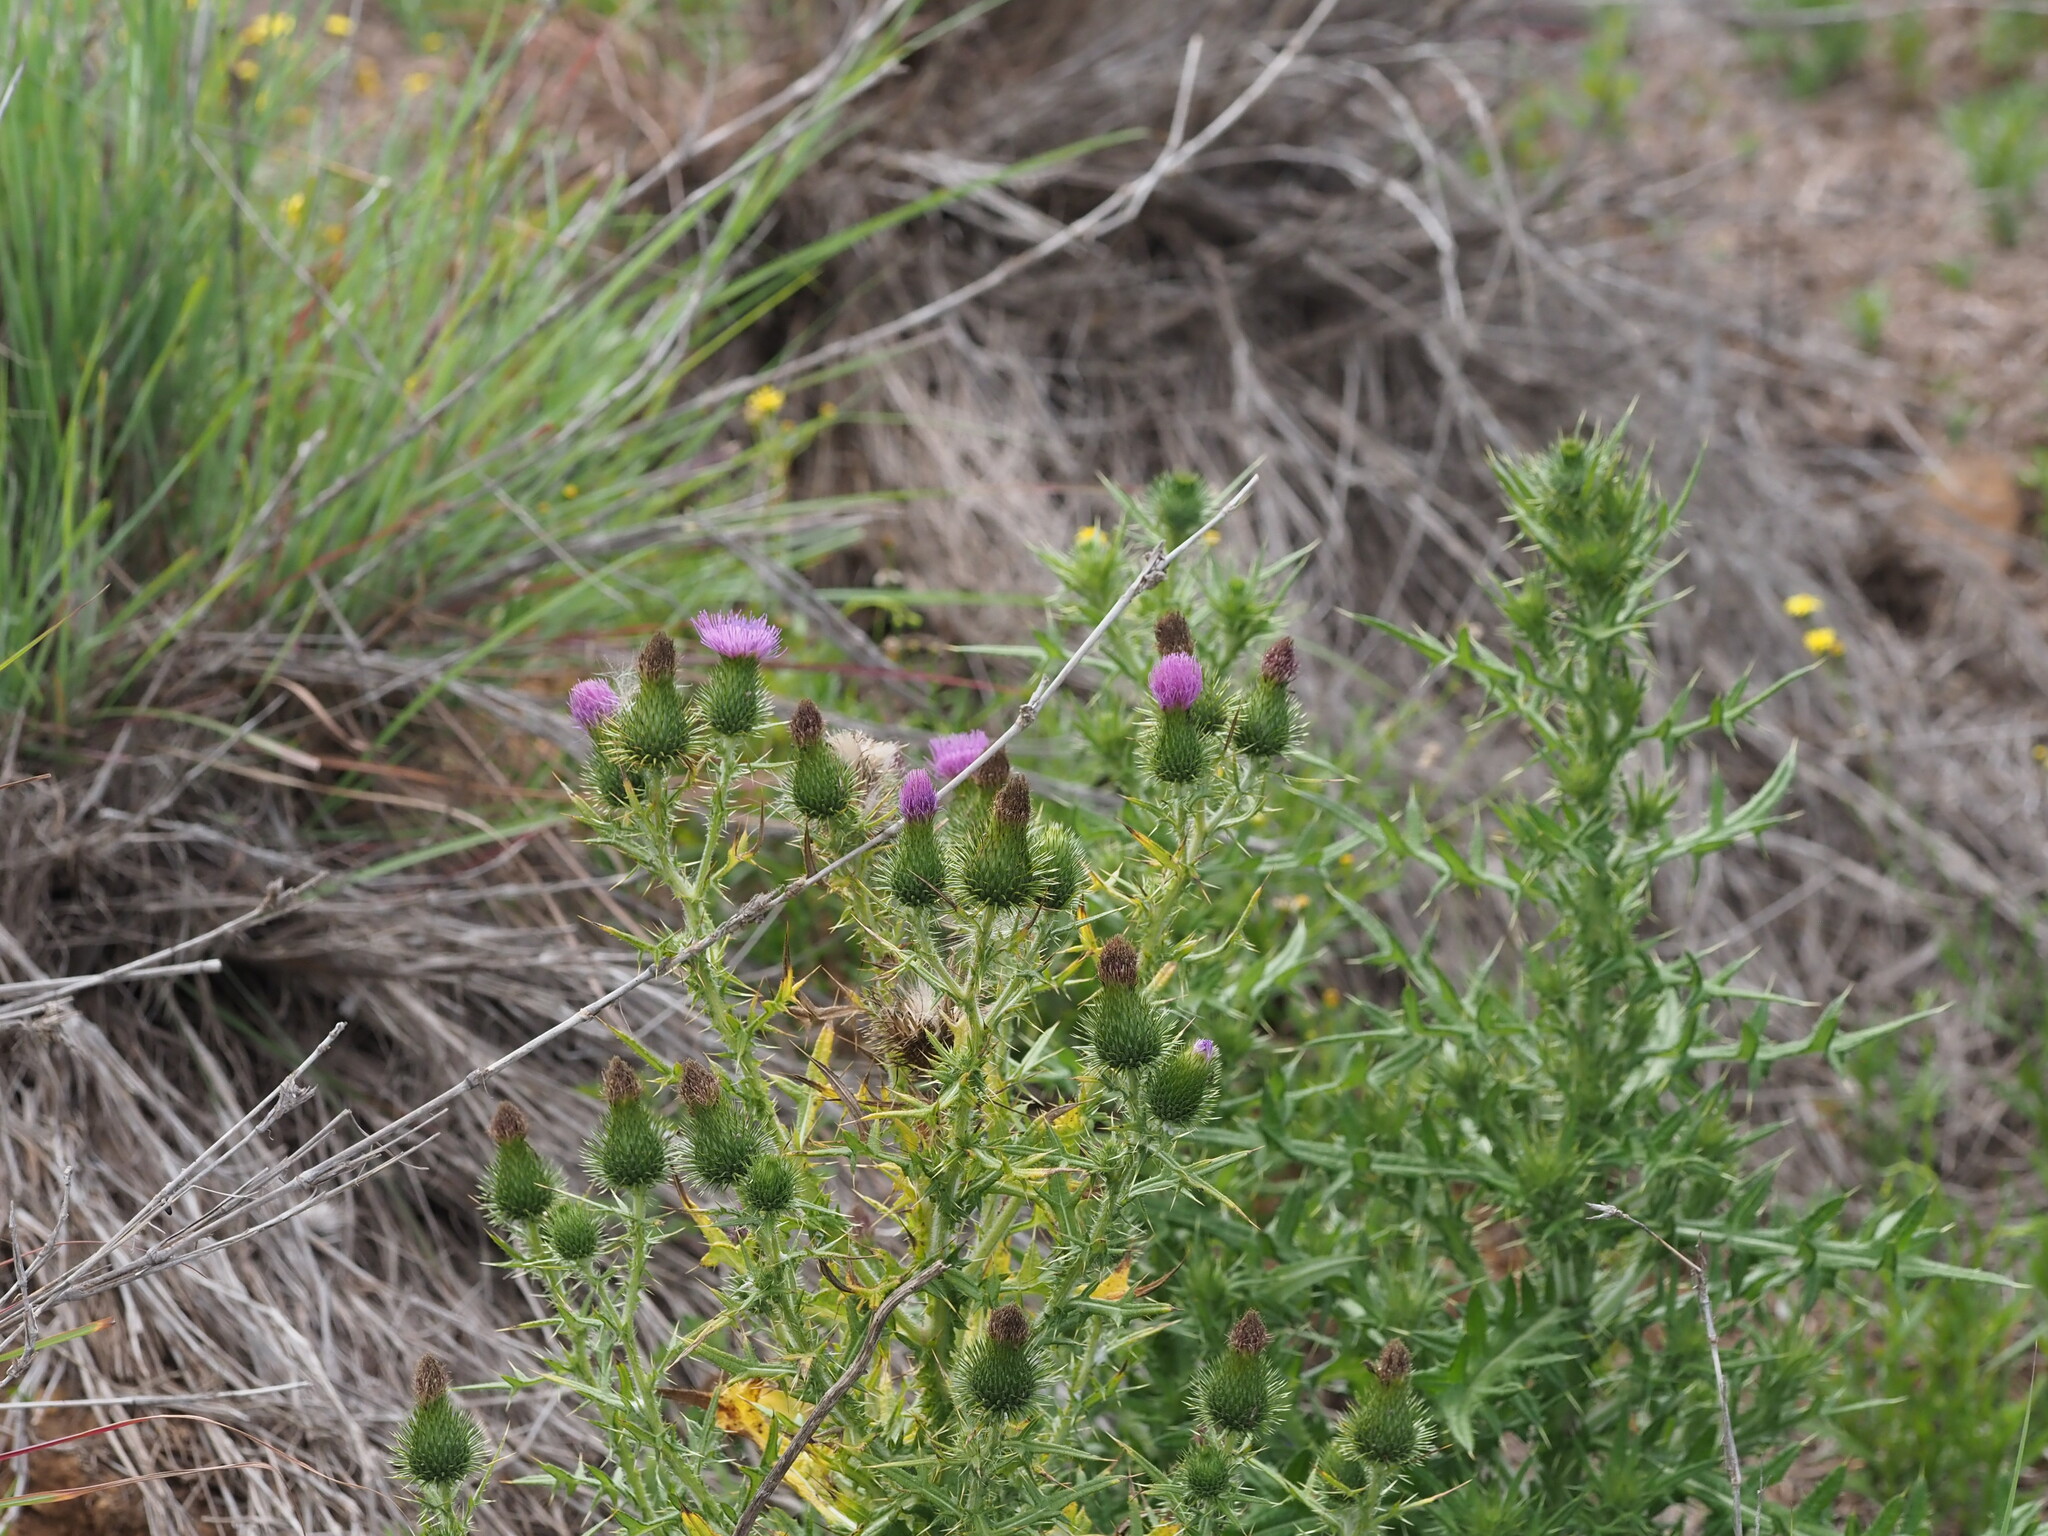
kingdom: Plantae
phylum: Tracheophyta
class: Magnoliopsida
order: Asterales
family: Asteraceae
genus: Cirsium
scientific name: Cirsium vulgare
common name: Bull thistle
